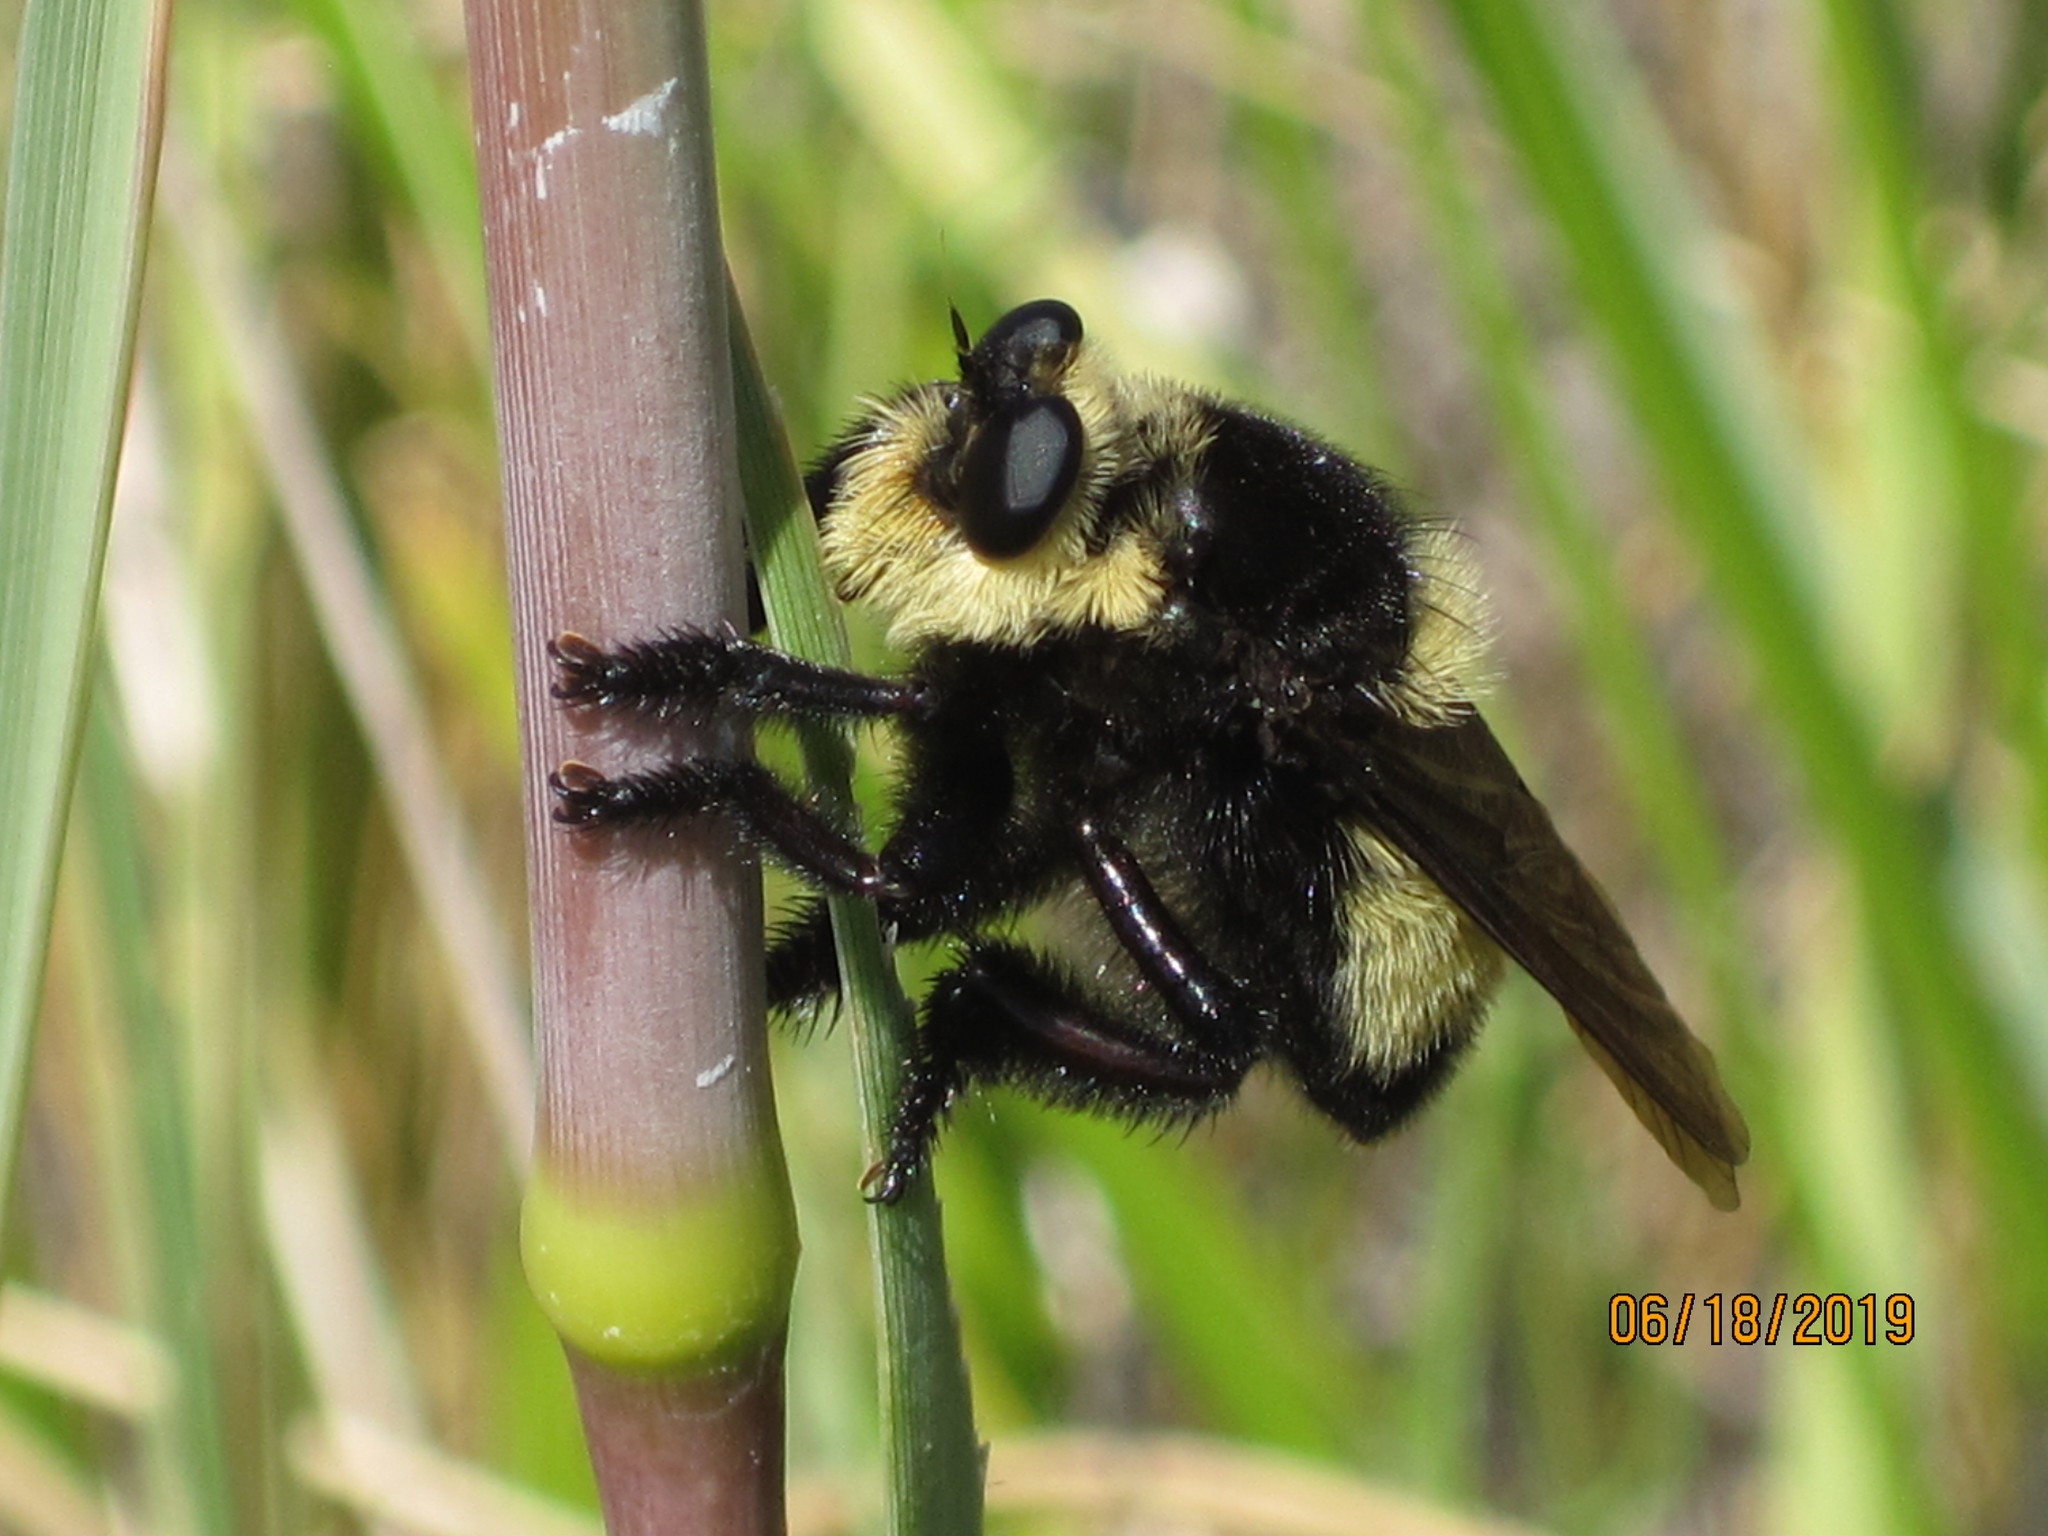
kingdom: Animalia
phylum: Arthropoda
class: Insecta
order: Diptera
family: Asilidae
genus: Mallophora
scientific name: Mallophora orcina
